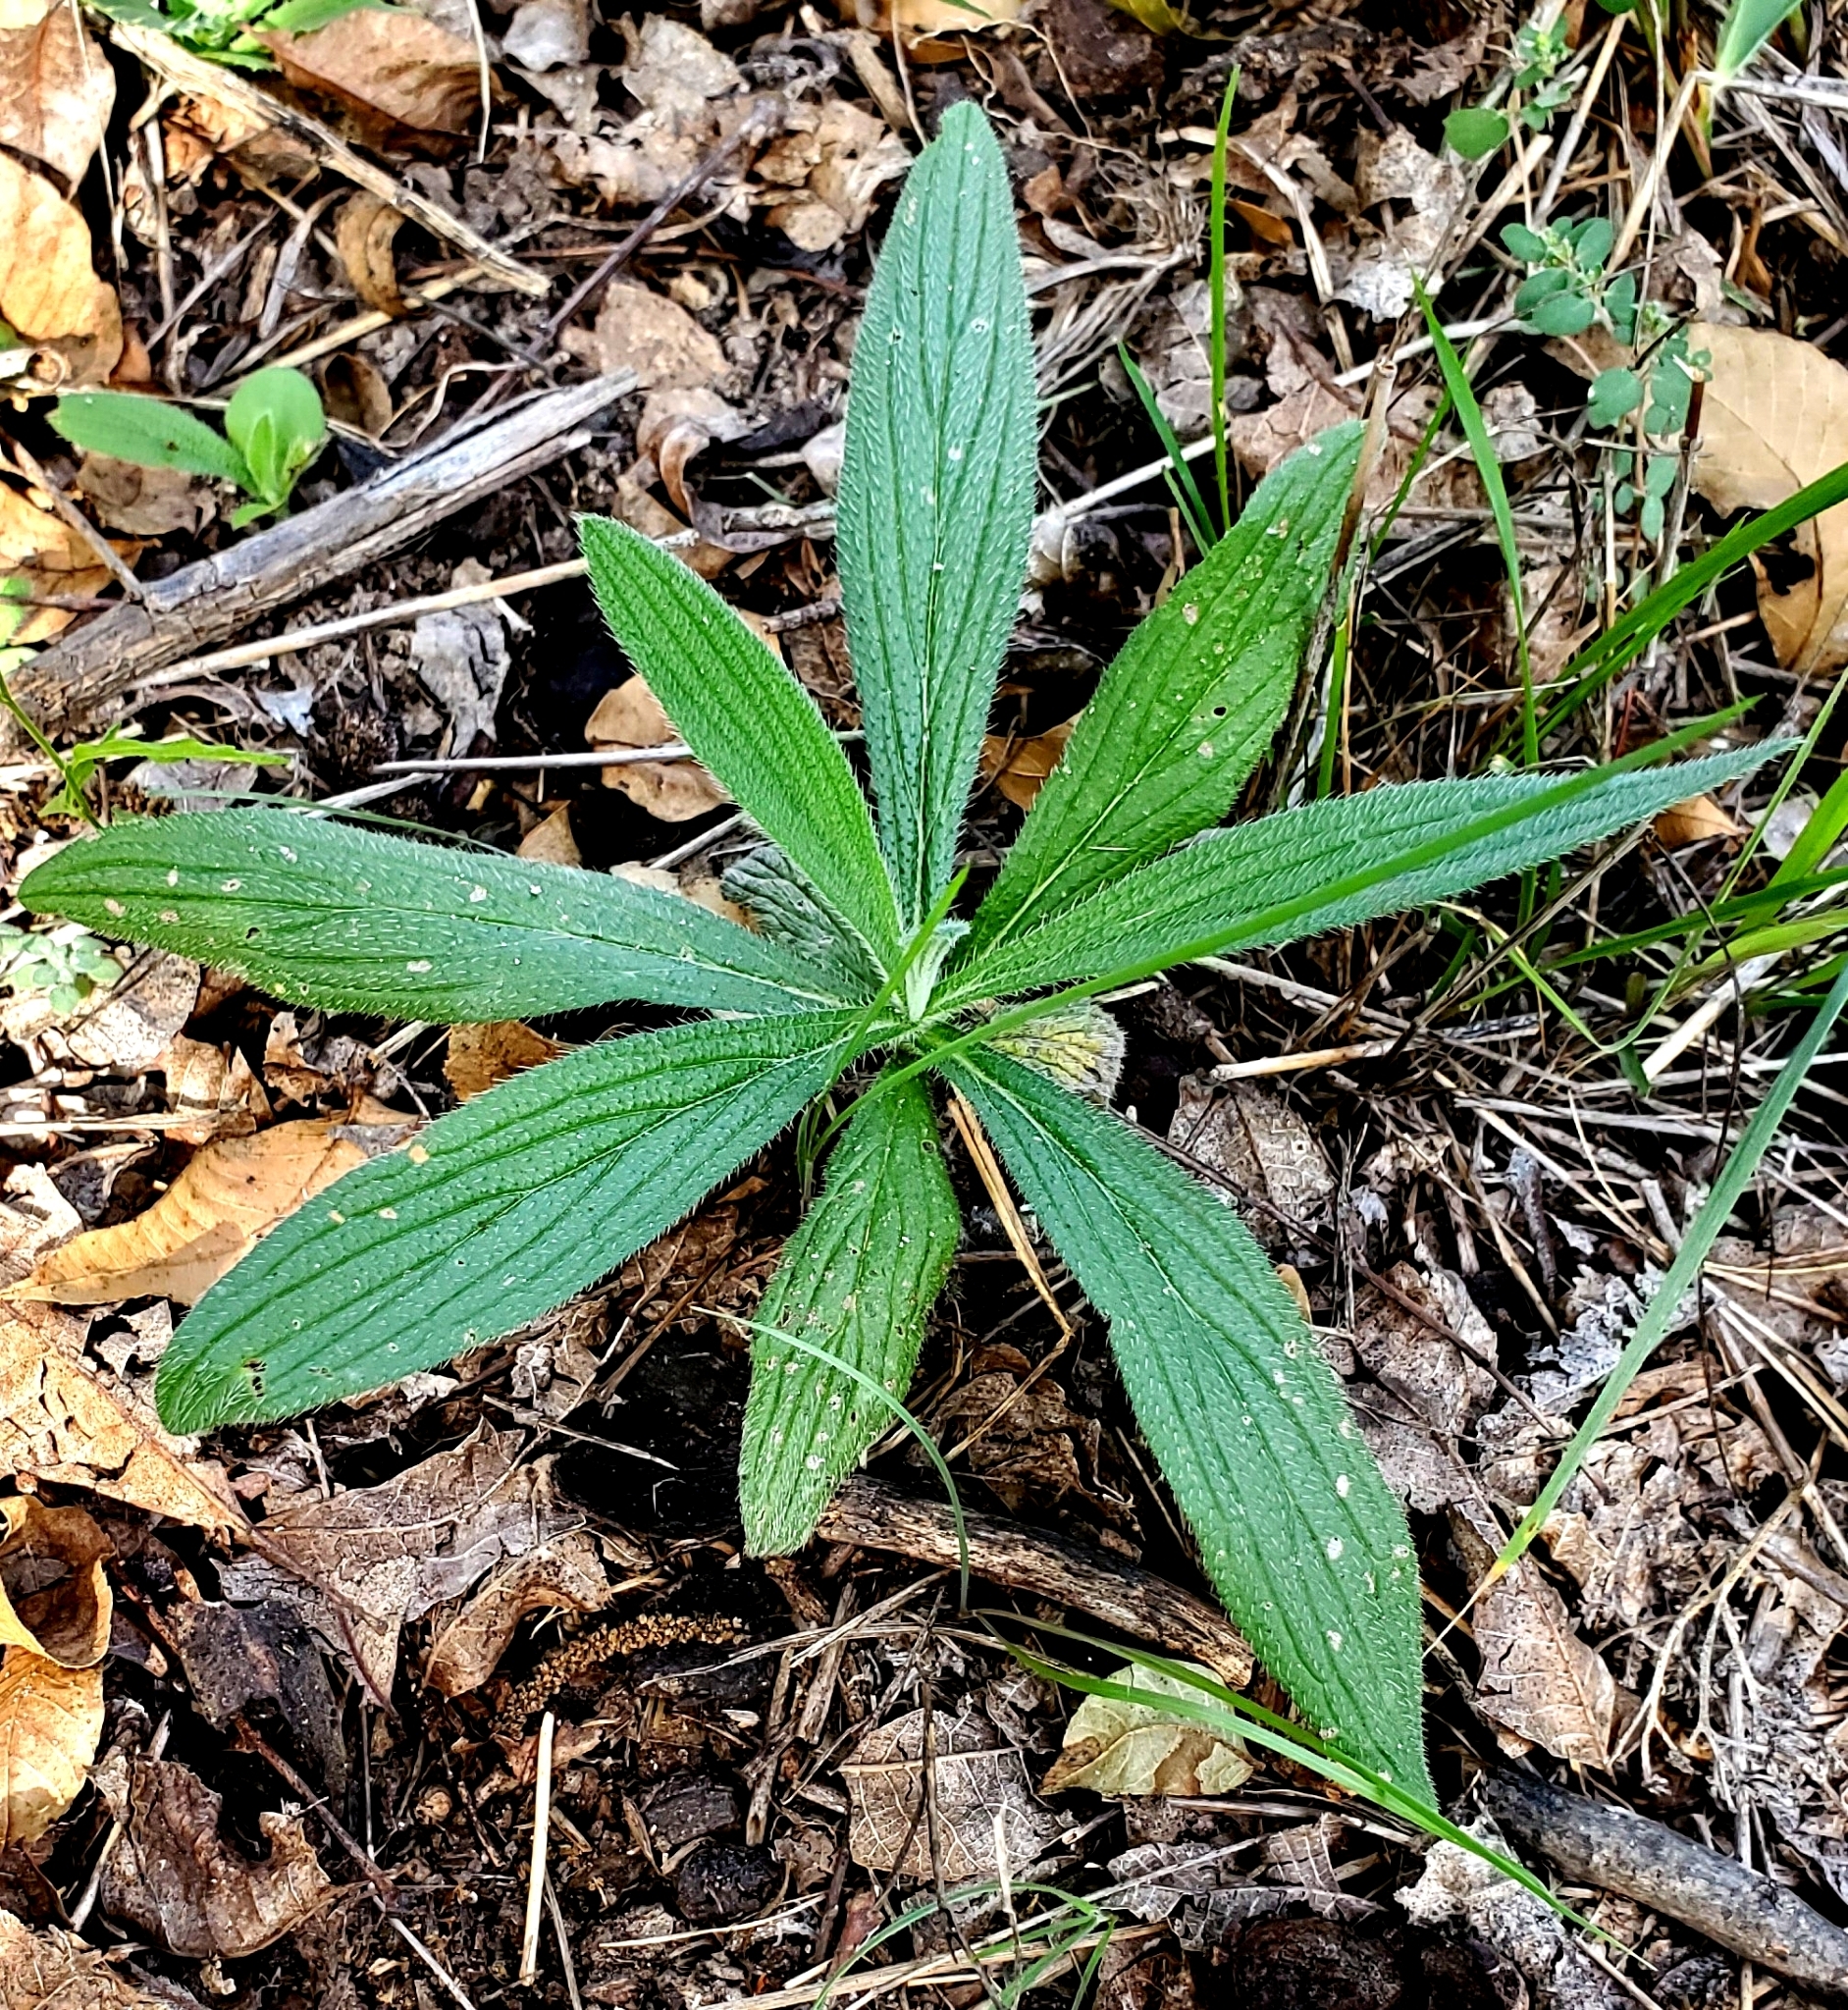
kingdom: Plantae
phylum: Tracheophyta
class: Magnoliopsida
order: Boraginales
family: Boraginaceae
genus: Lithospermum
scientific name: Lithospermum caroliniense
